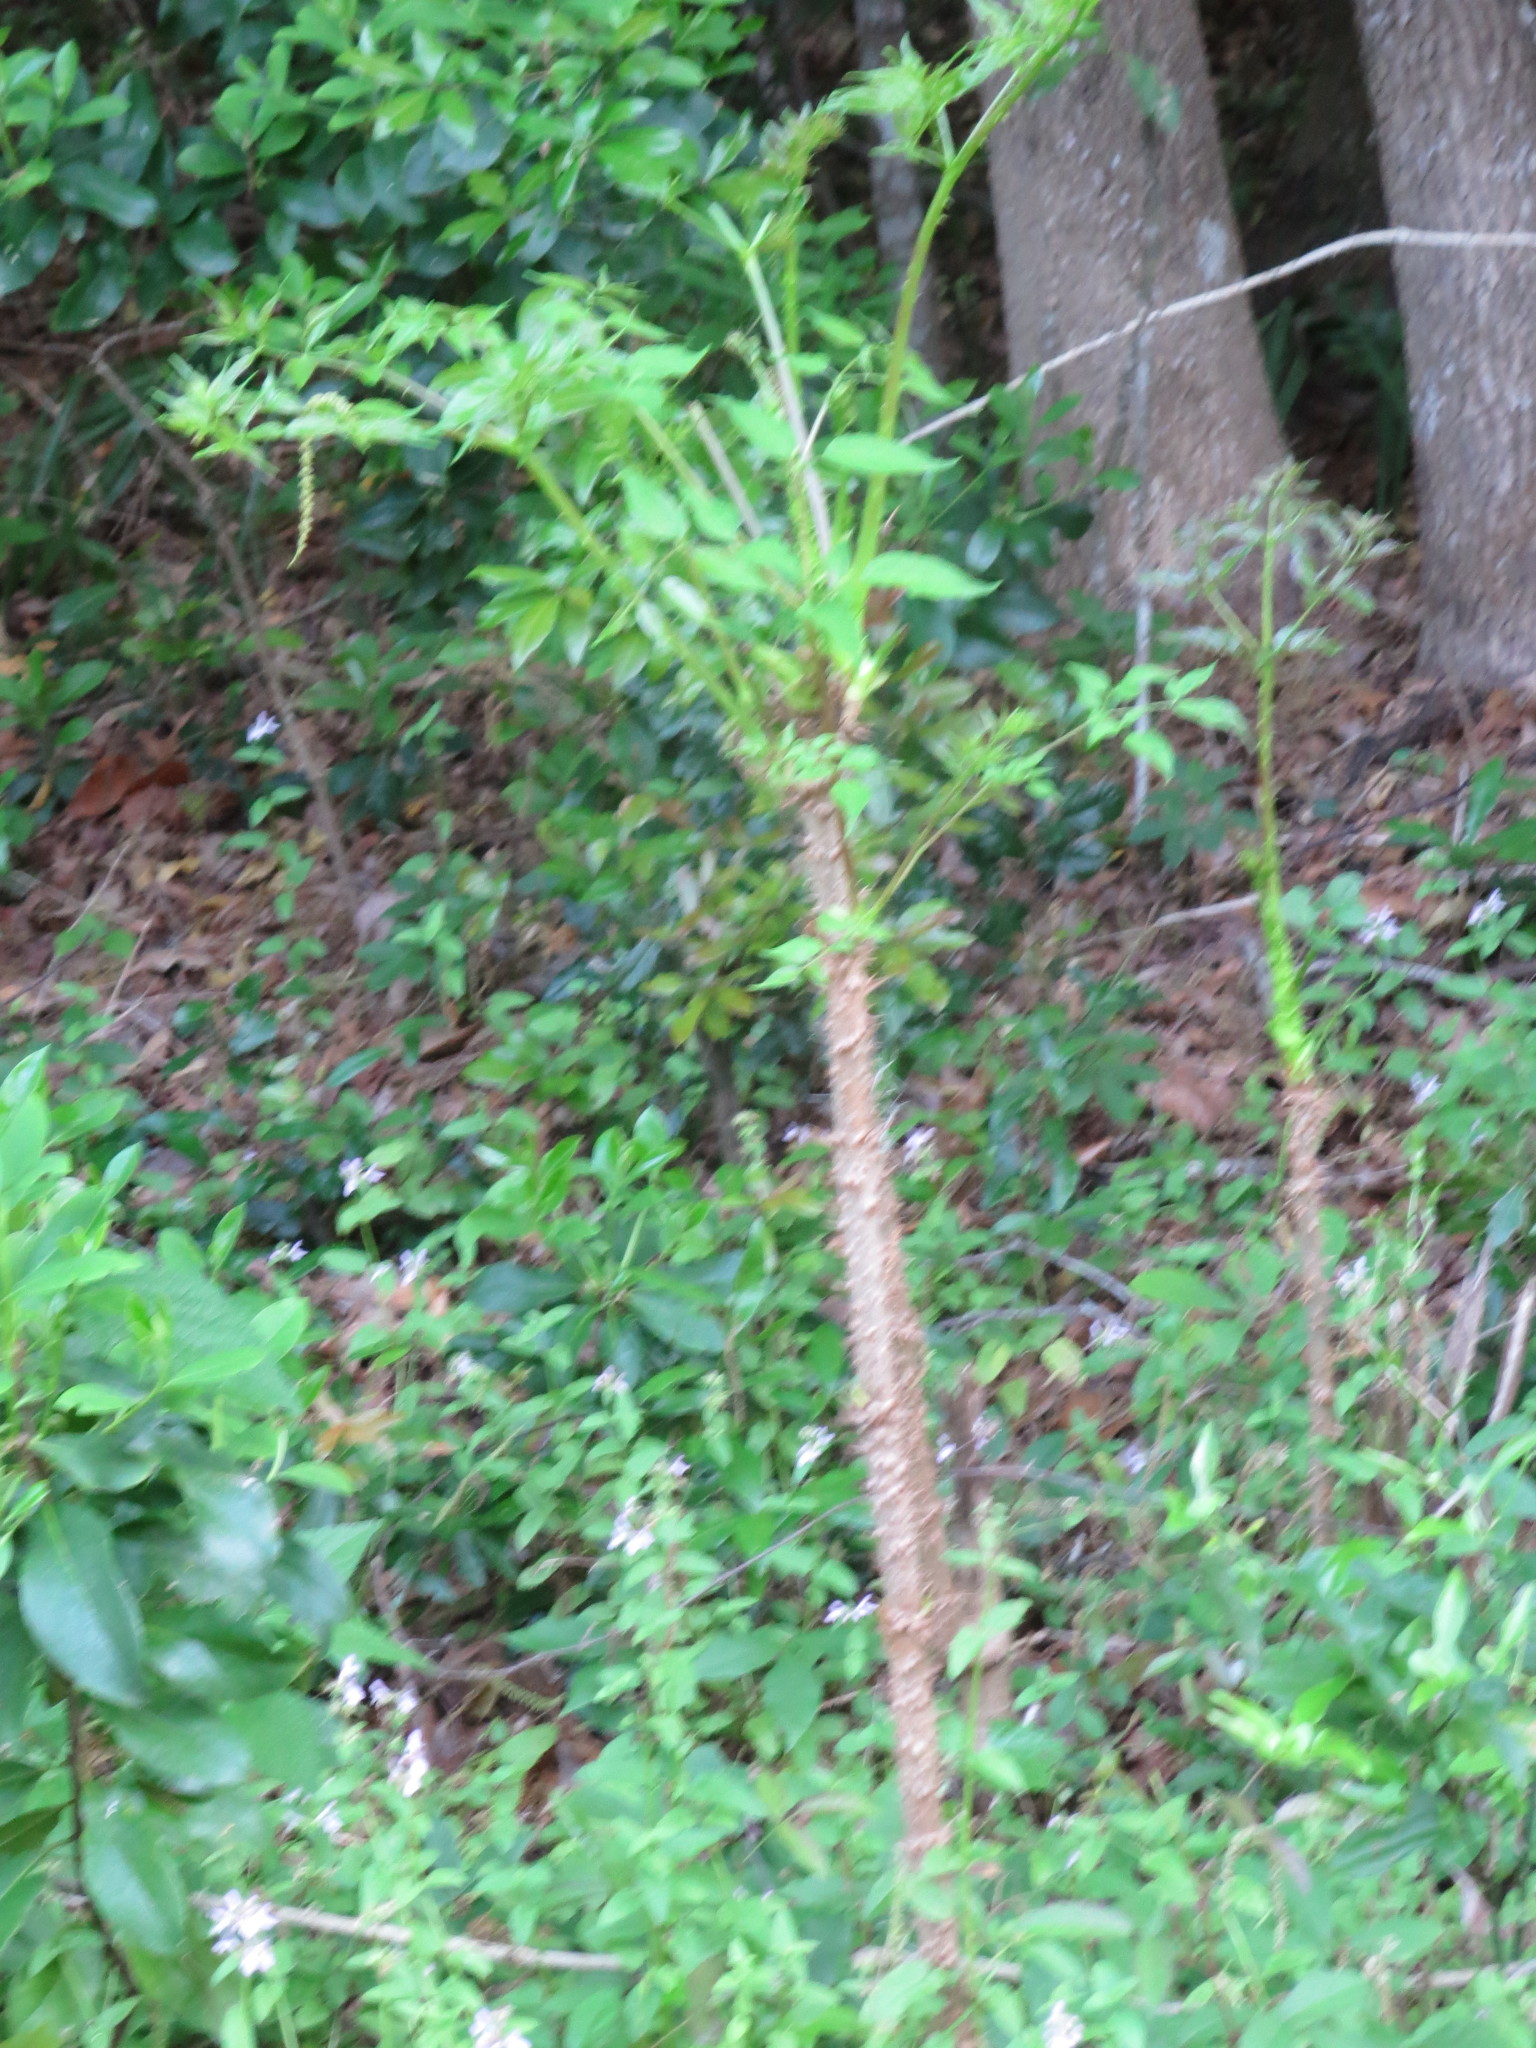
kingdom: Plantae
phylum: Tracheophyta
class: Magnoliopsida
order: Apiales
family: Araliaceae
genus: Aralia
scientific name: Aralia spinosa
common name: Hercules'-club
